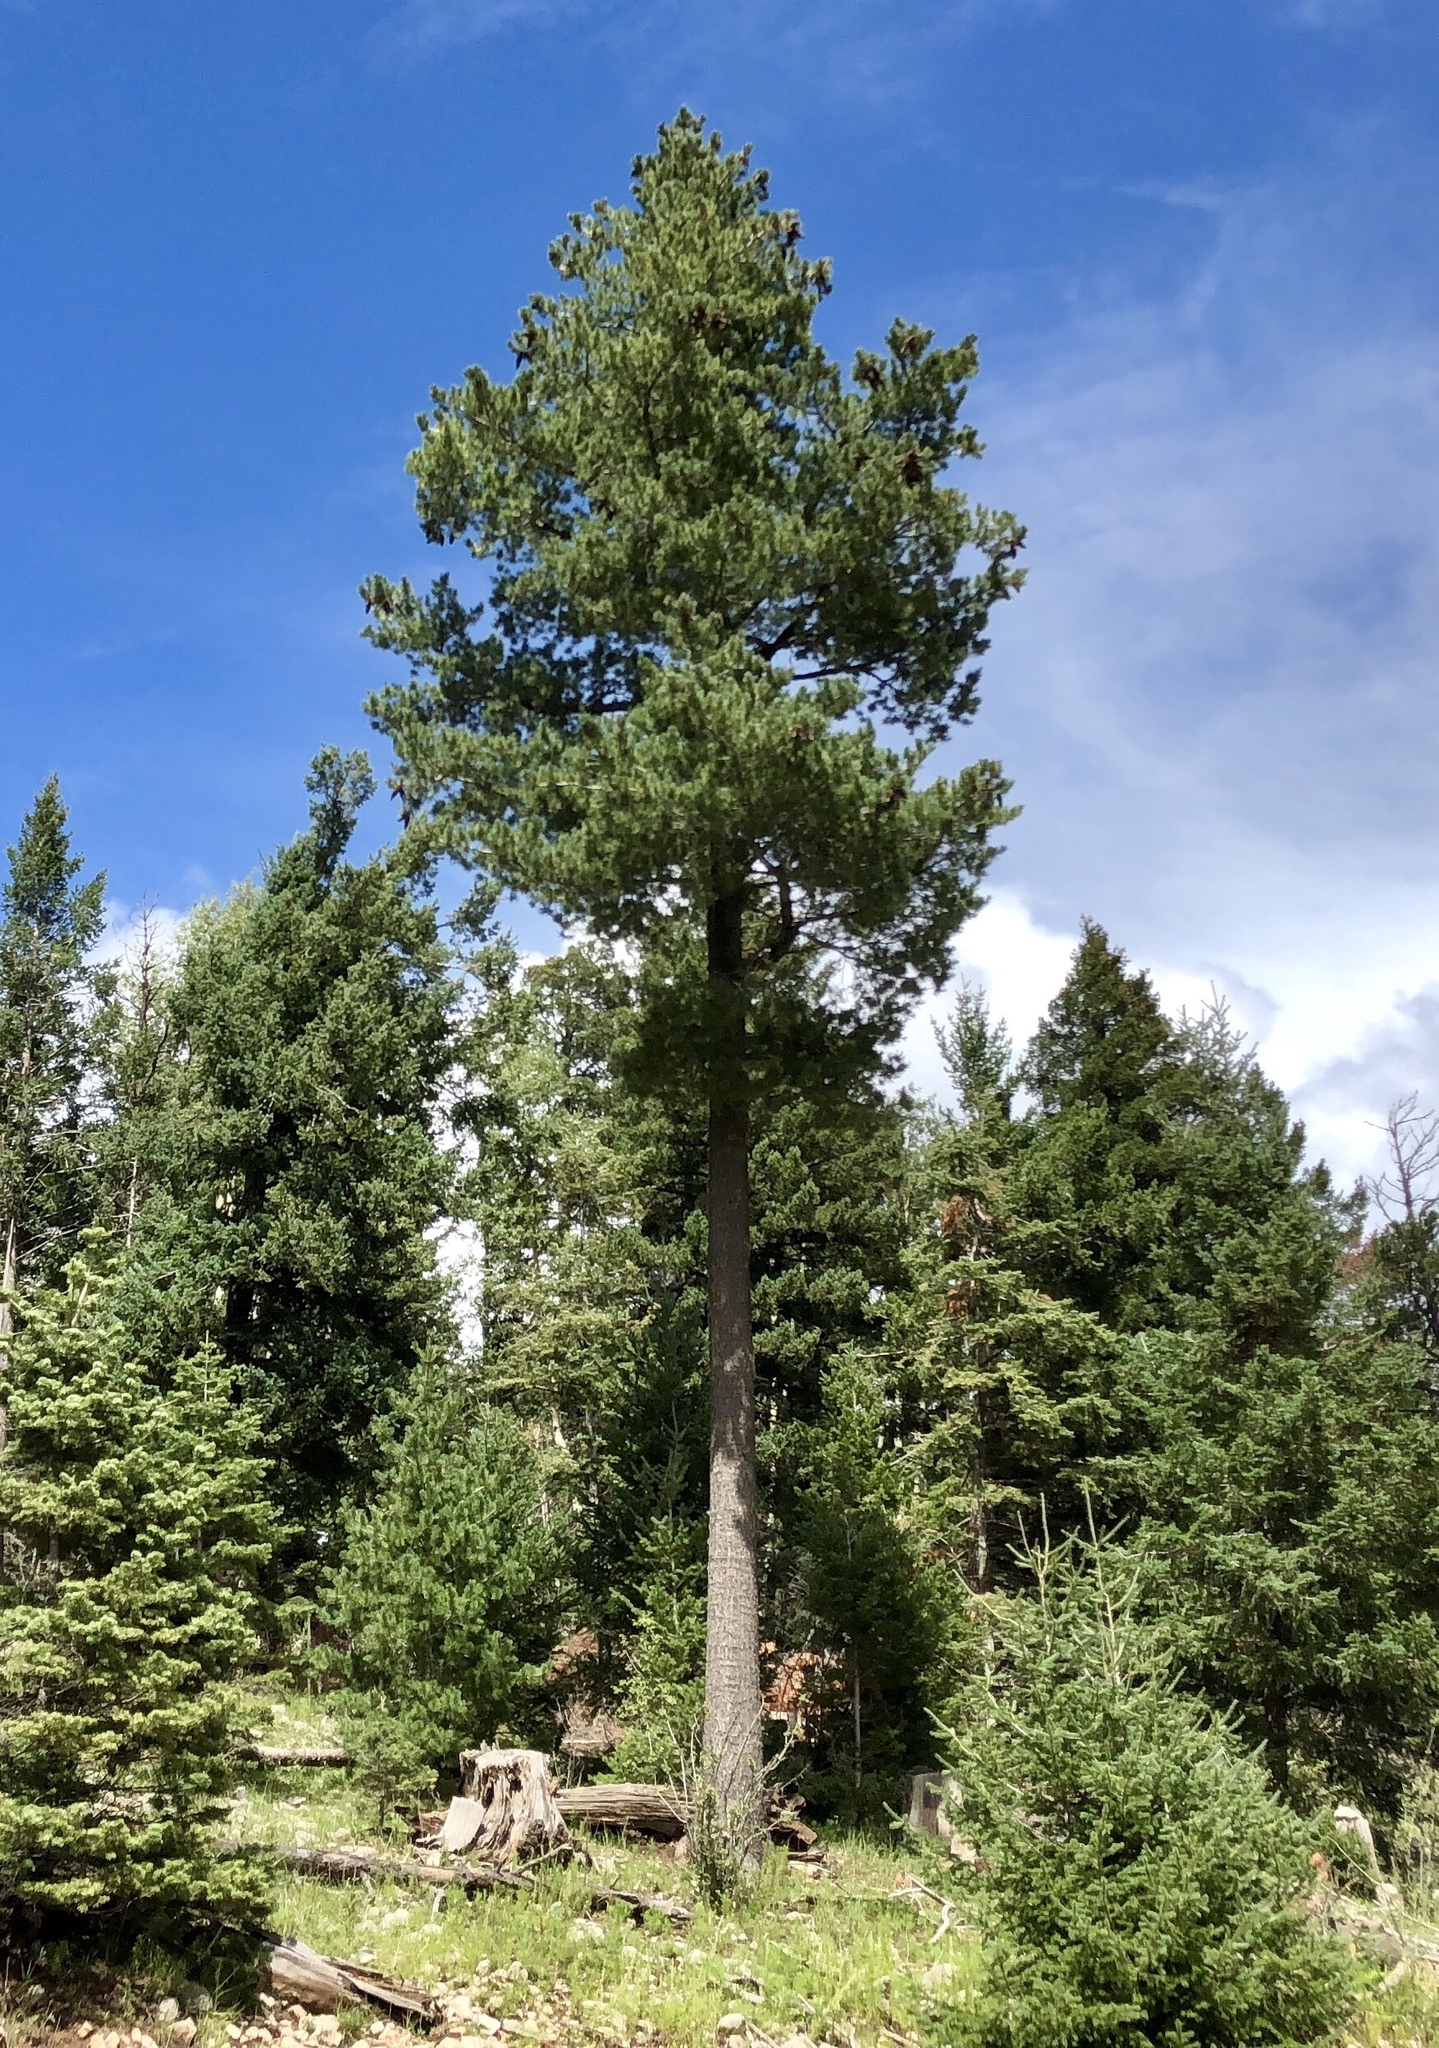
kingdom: Plantae
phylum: Tracheophyta
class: Pinopsida
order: Pinales
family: Pinaceae
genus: Pinus
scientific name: Pinus strobiformis
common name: Southwestern white pine
